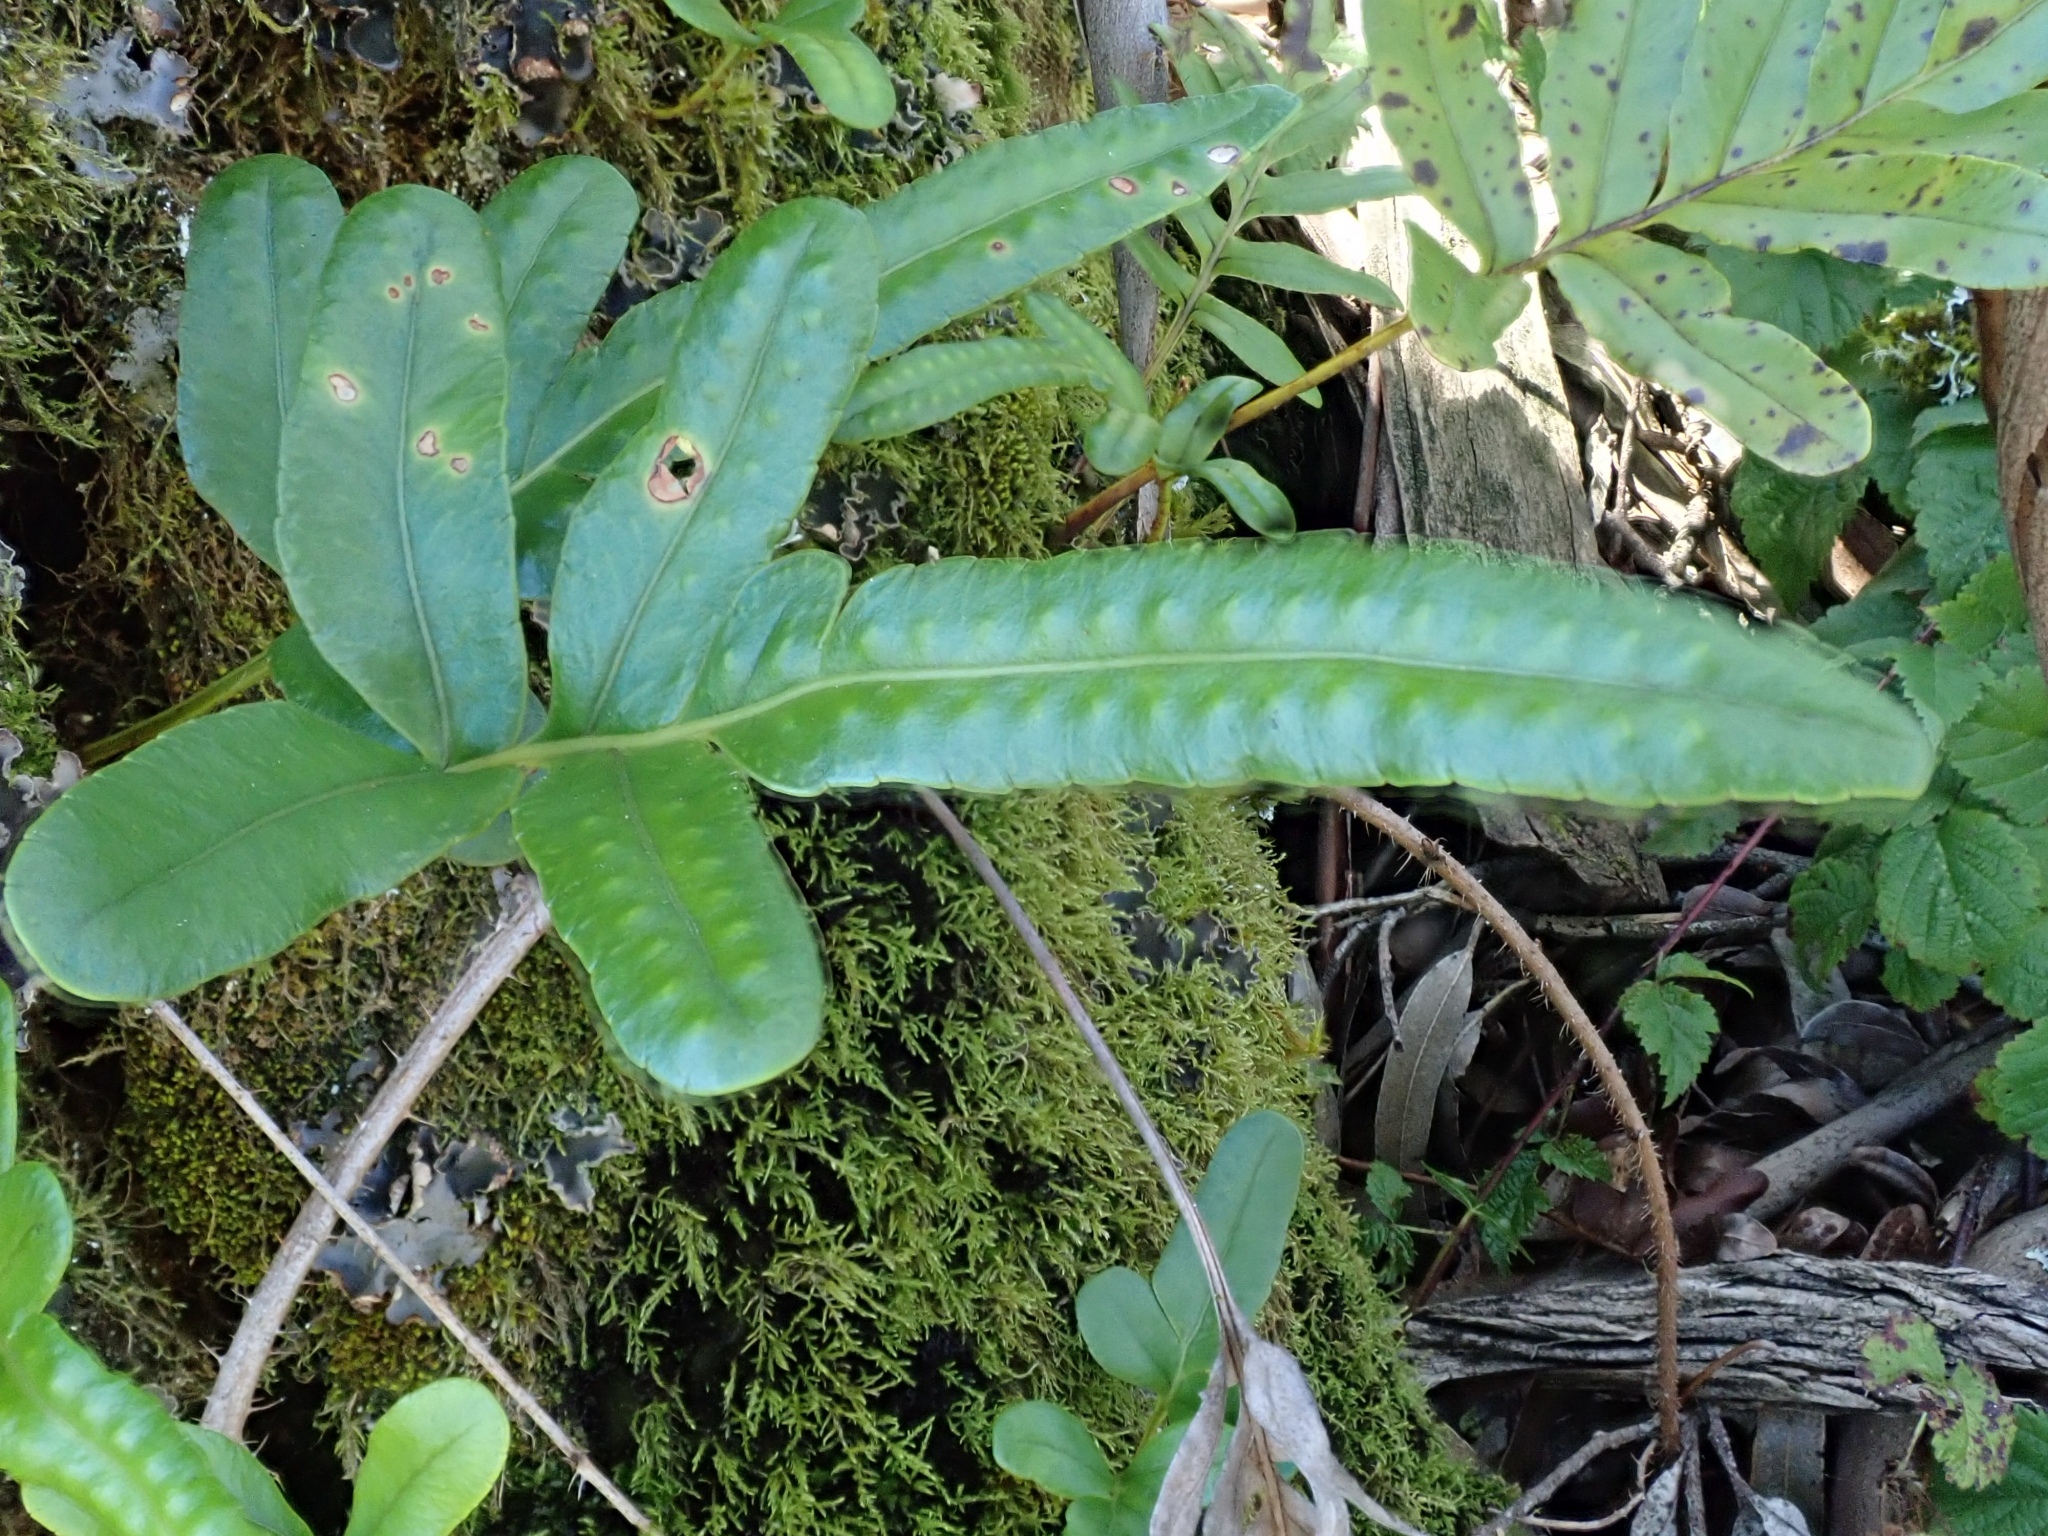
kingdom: Plantae
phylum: Tracheophyta
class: Polypodiopsida
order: Polypodiales
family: Polypodiaceae
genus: Polypodium
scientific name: Polypodium scouleri
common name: Scouler's polypody
